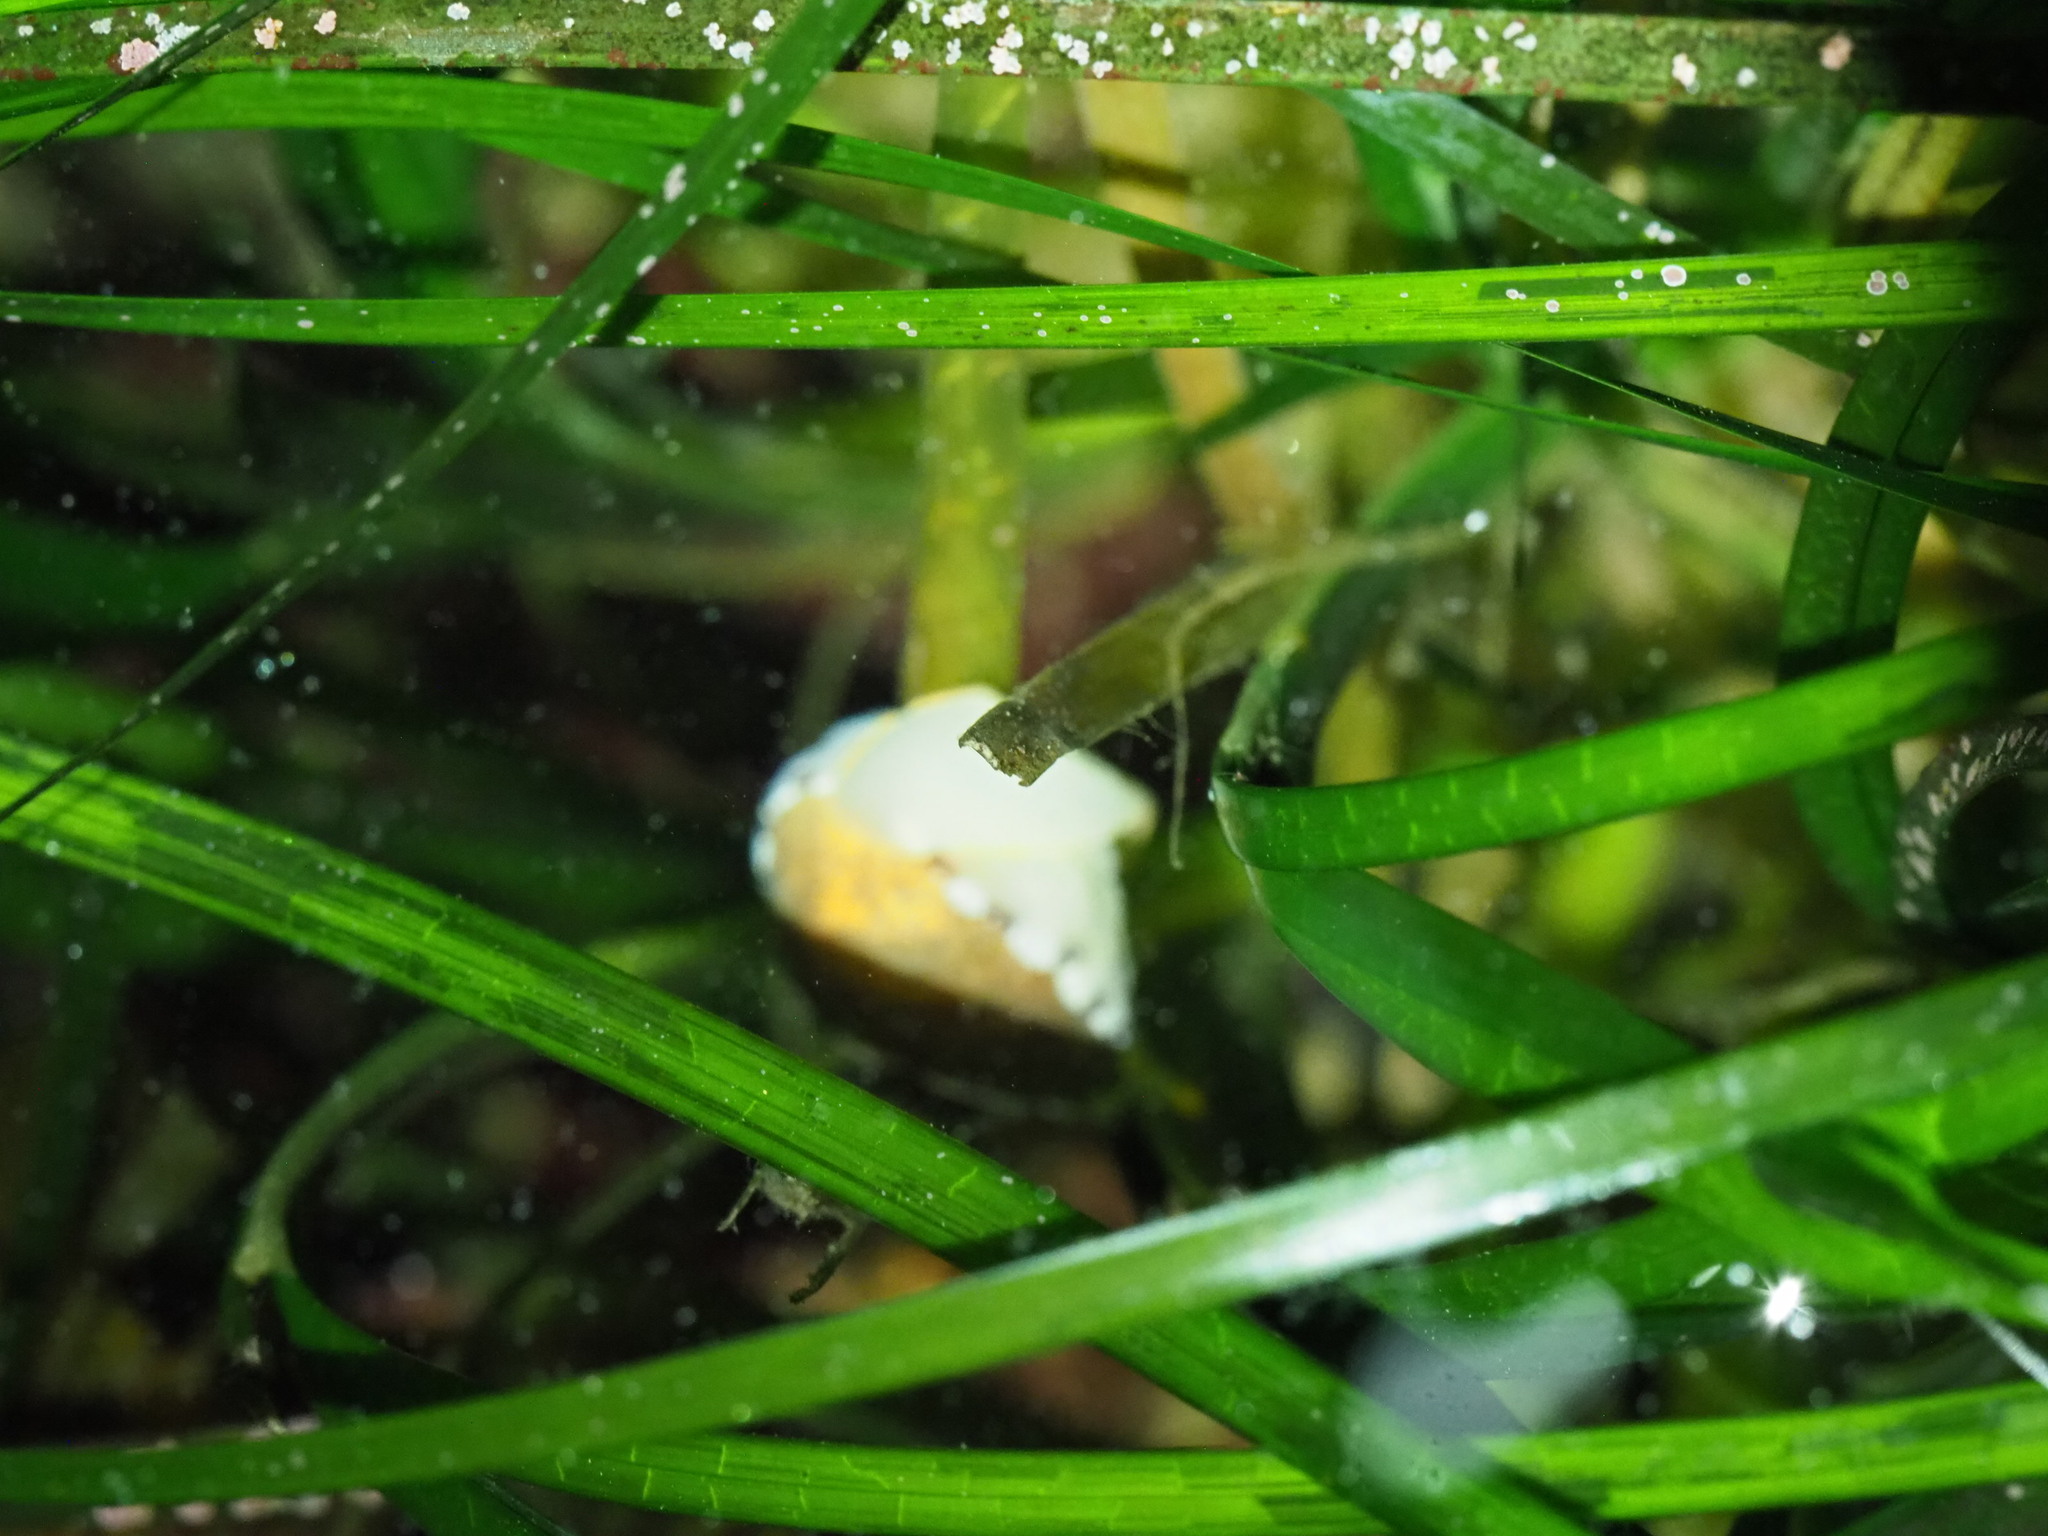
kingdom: Animalia
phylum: Mollusca
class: Gastropoda
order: Littorinimorpha
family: Velutinidae
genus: Limneria
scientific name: Limneria prolongata
